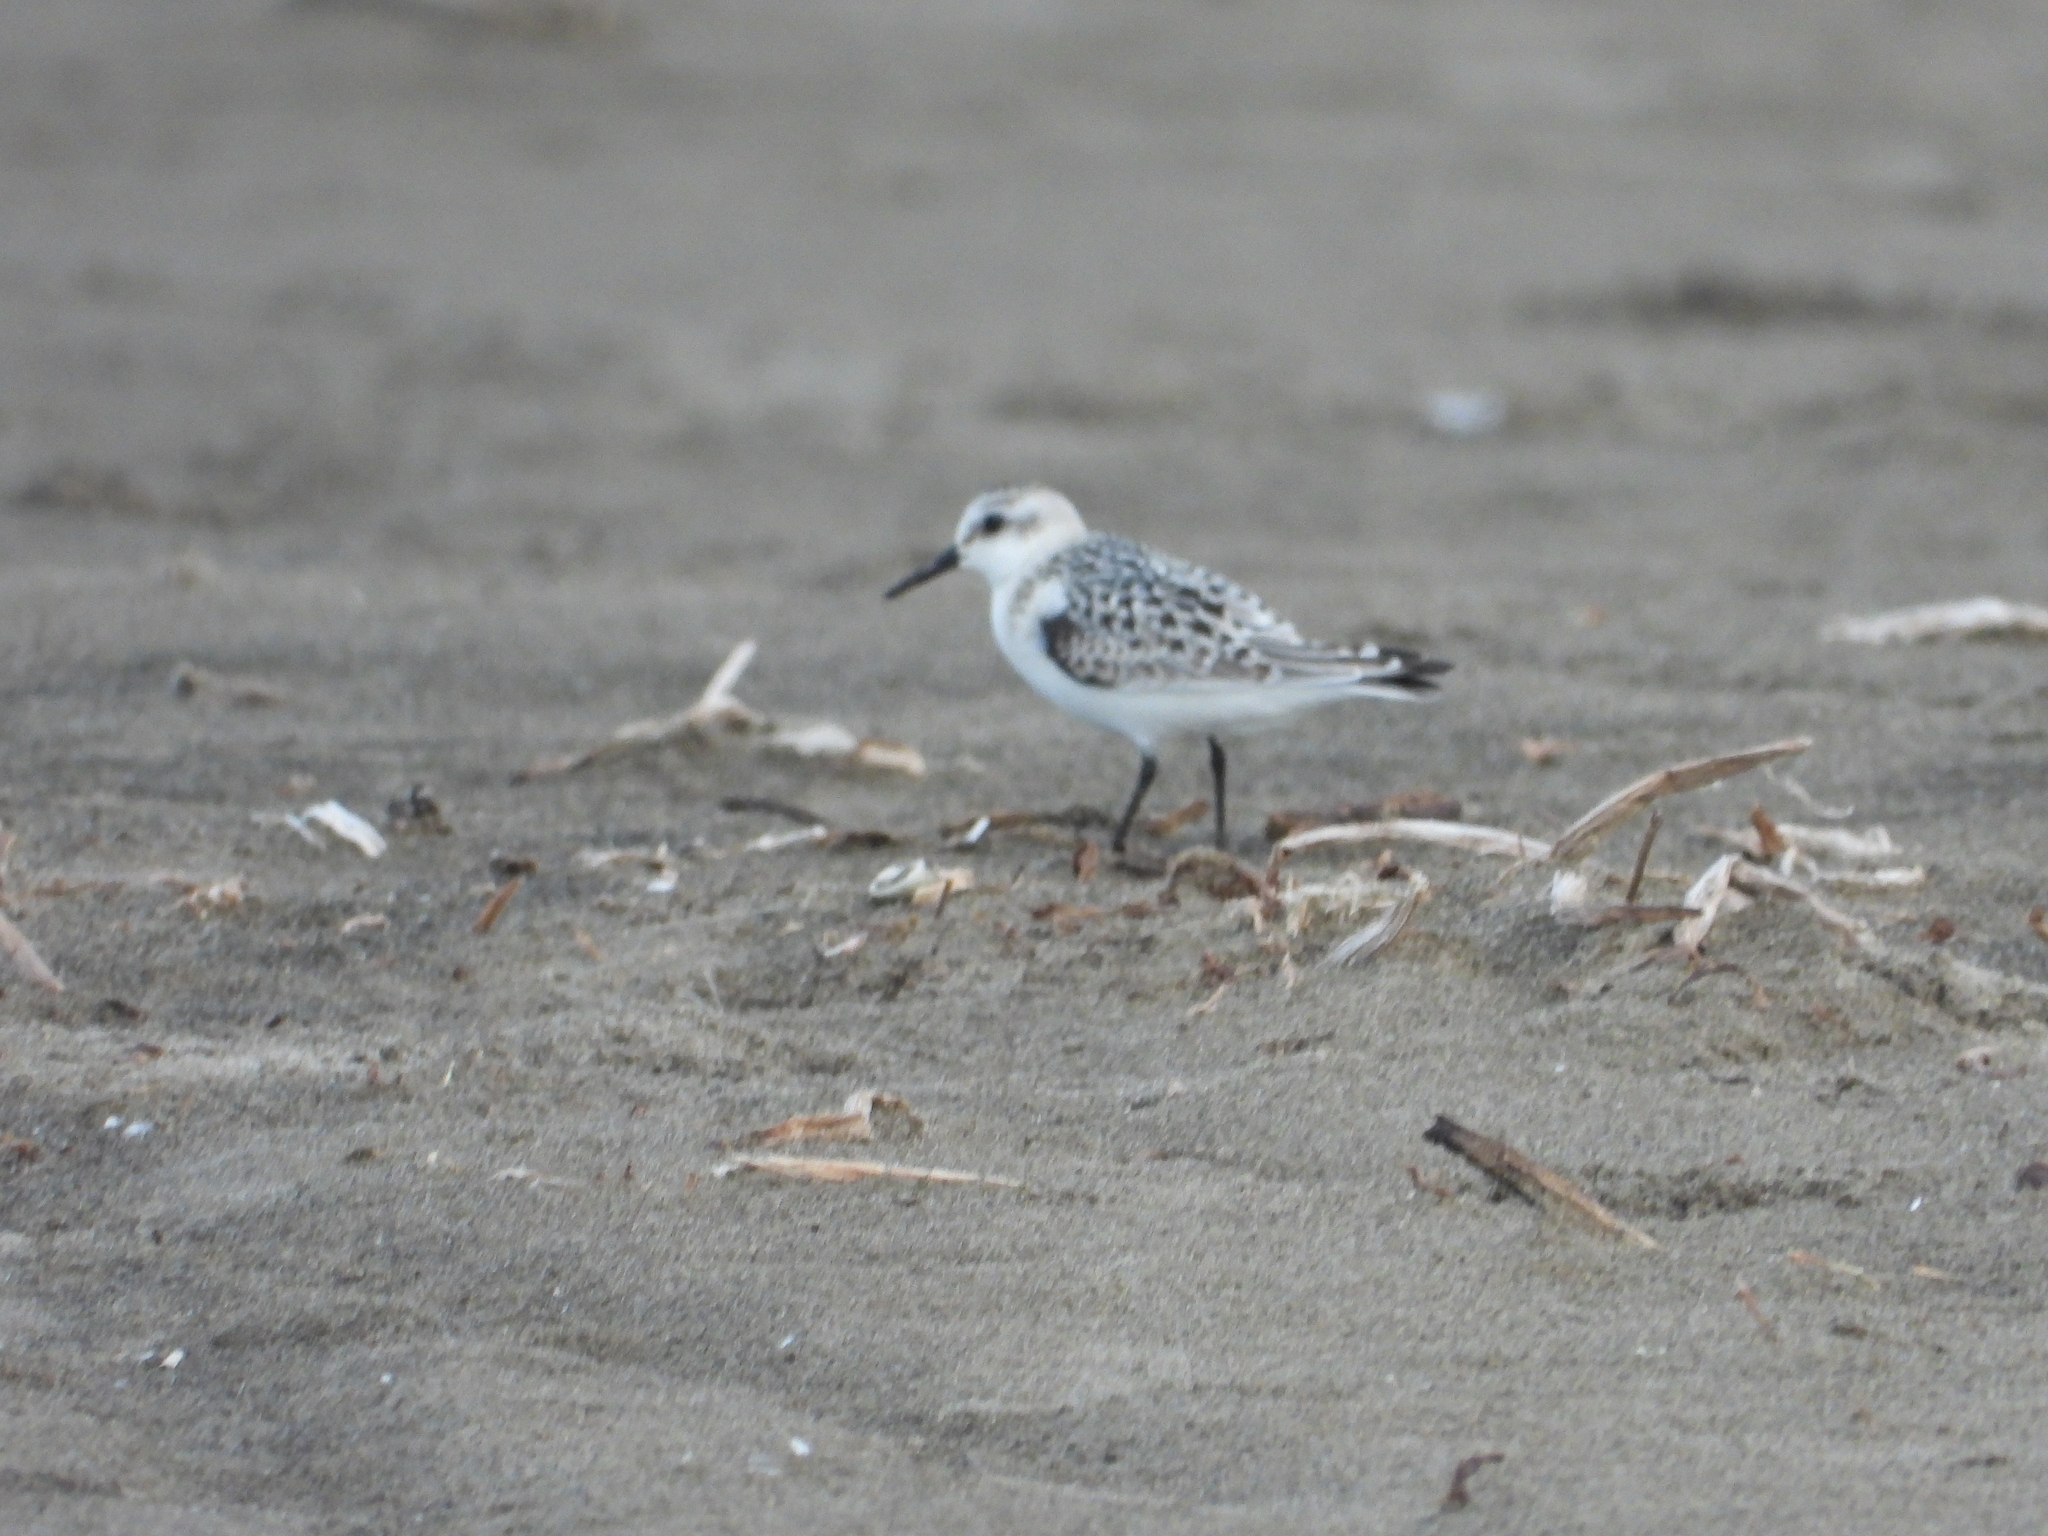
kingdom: Animalia
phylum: Chordata
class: Aves
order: Charadriiformes
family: Scolopacidae
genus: Calidris
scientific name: Calidris alba
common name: Sanderling
